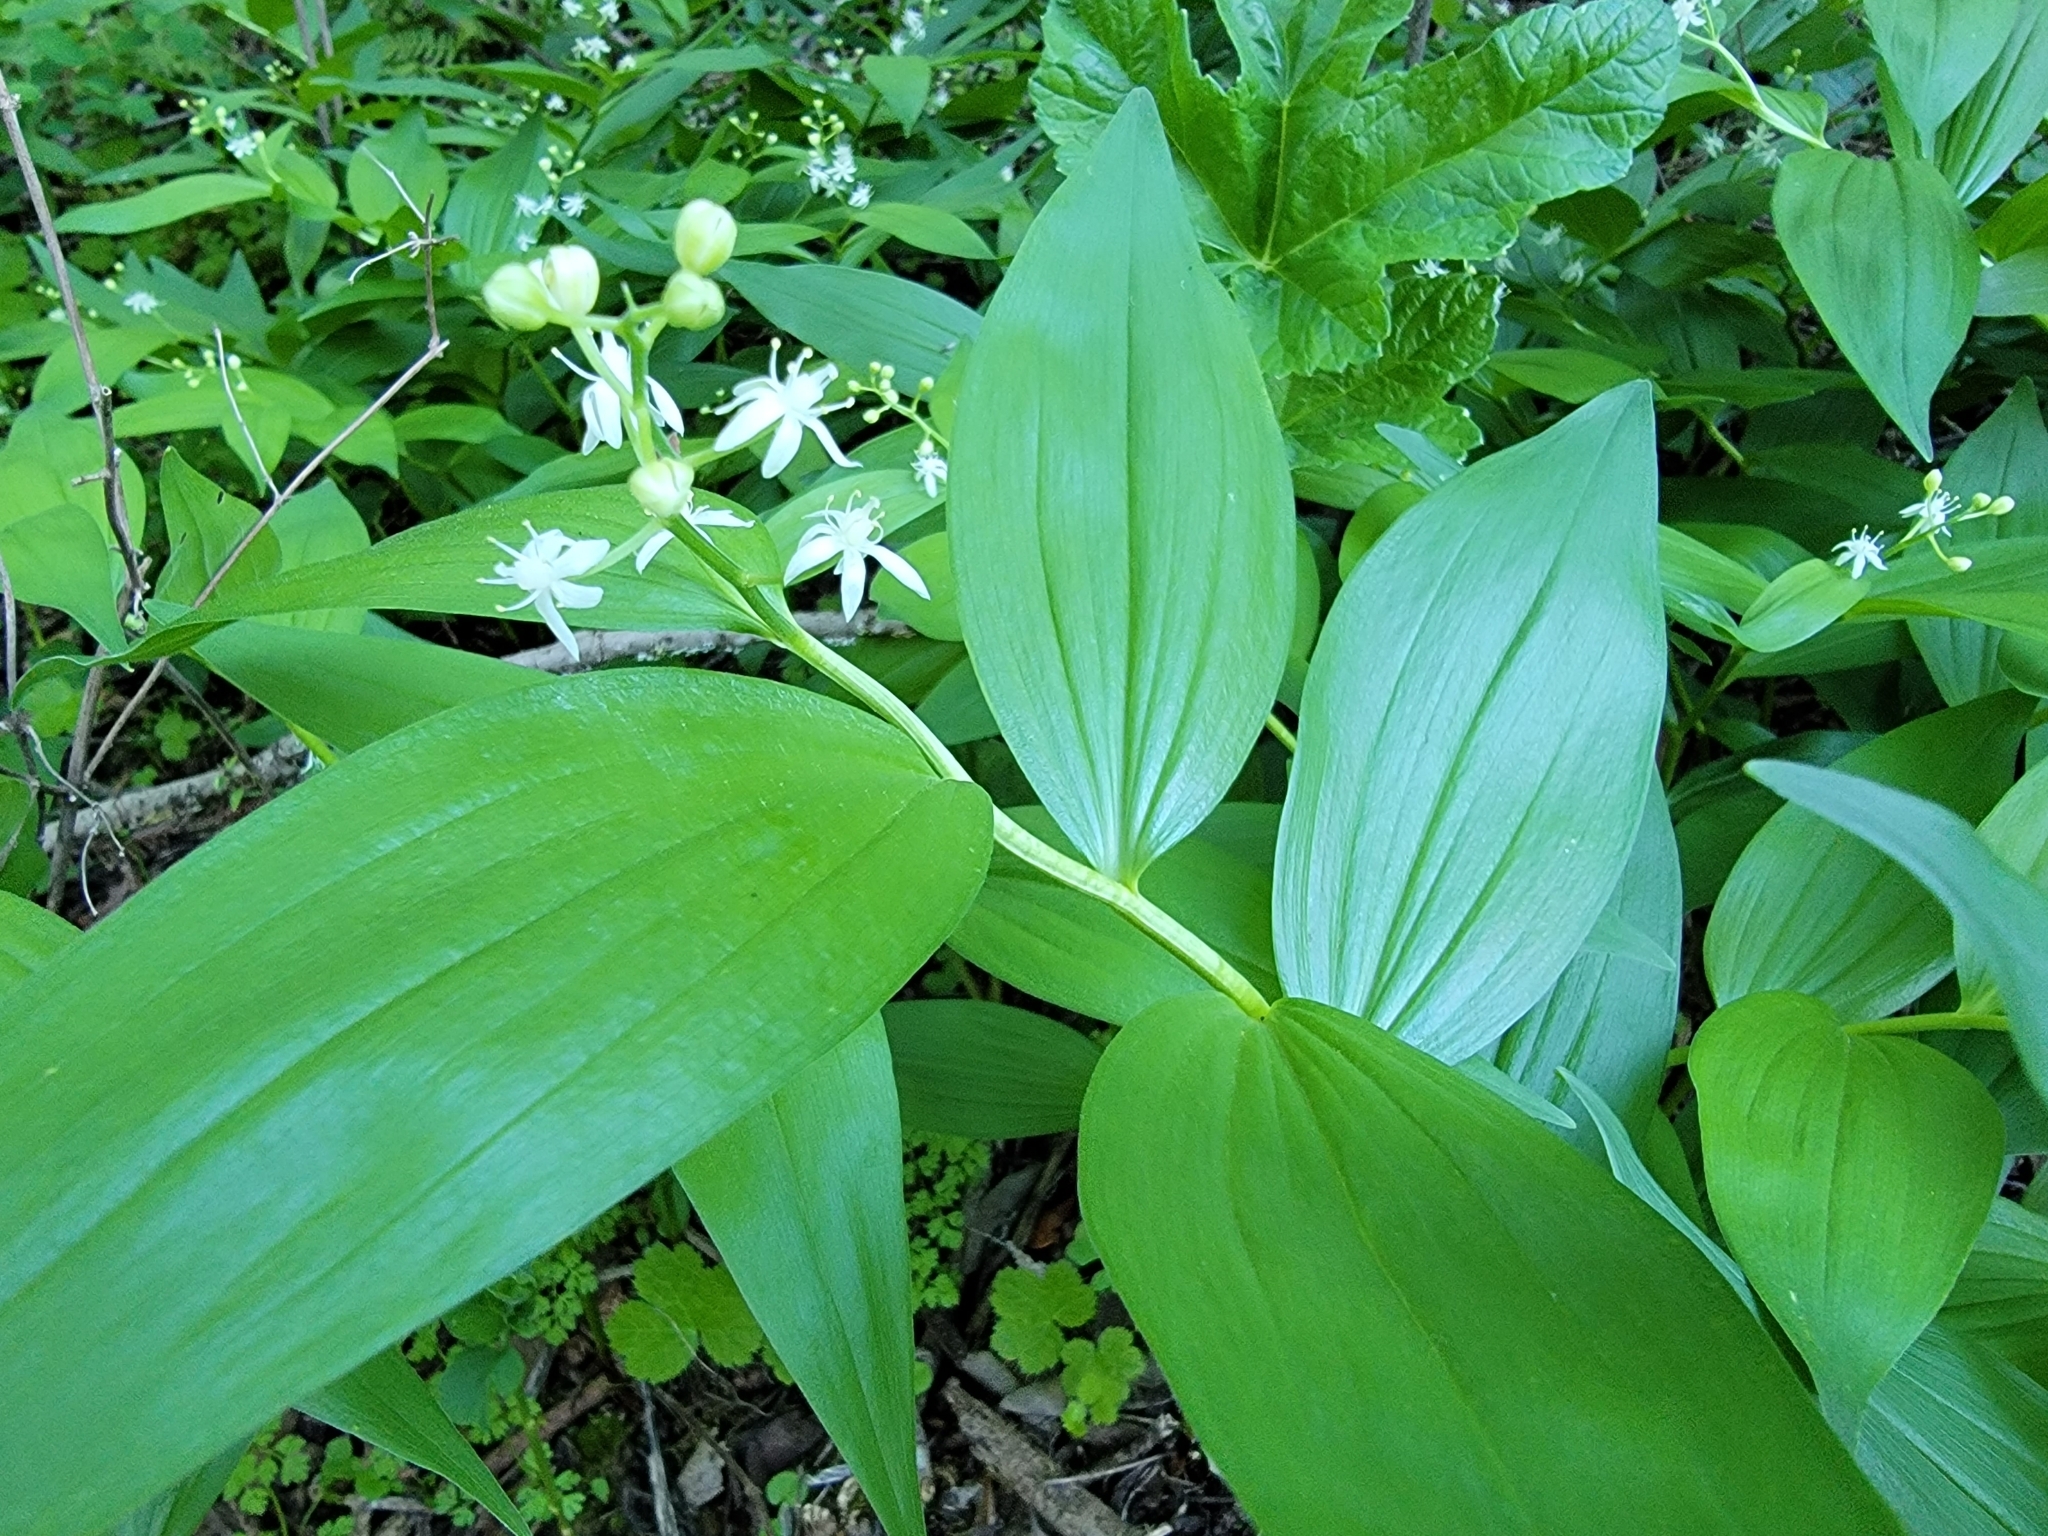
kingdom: Plantae
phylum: Tracheophyta
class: Liliopsida
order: Asparagales
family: Asparagaceae
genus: Maianthemum
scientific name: Maianthemum stellatum
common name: Little false solomon's seal
